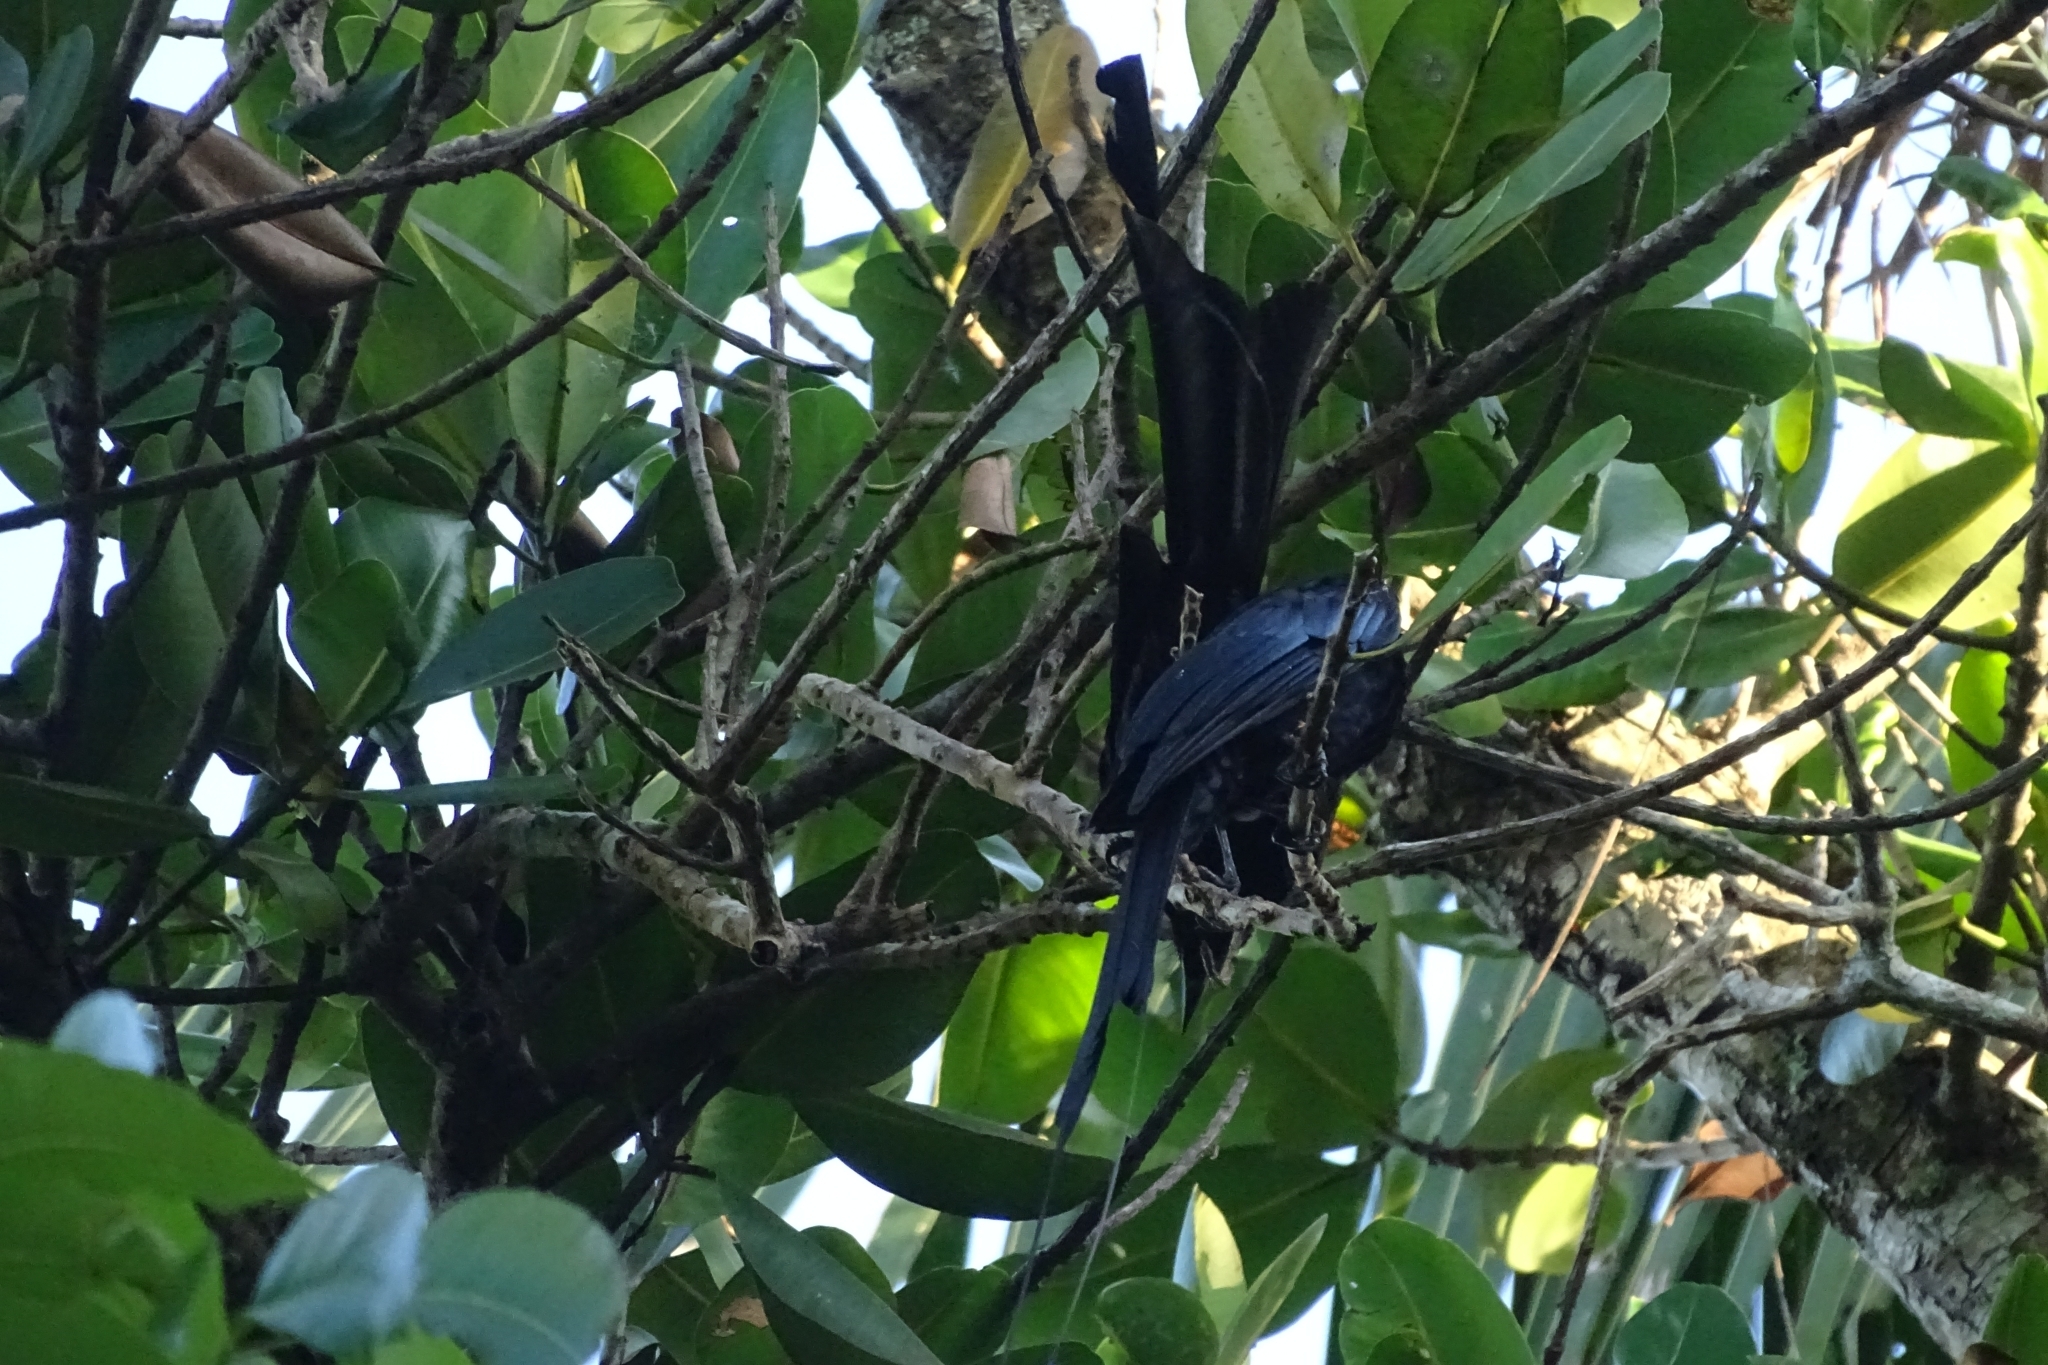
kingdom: Animalia
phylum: Chordata
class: Aves
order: Passeriformes
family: Dicruridae
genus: Dicrurus
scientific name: Dicrurus paradiseus
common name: Greater racket-tailed drongo
